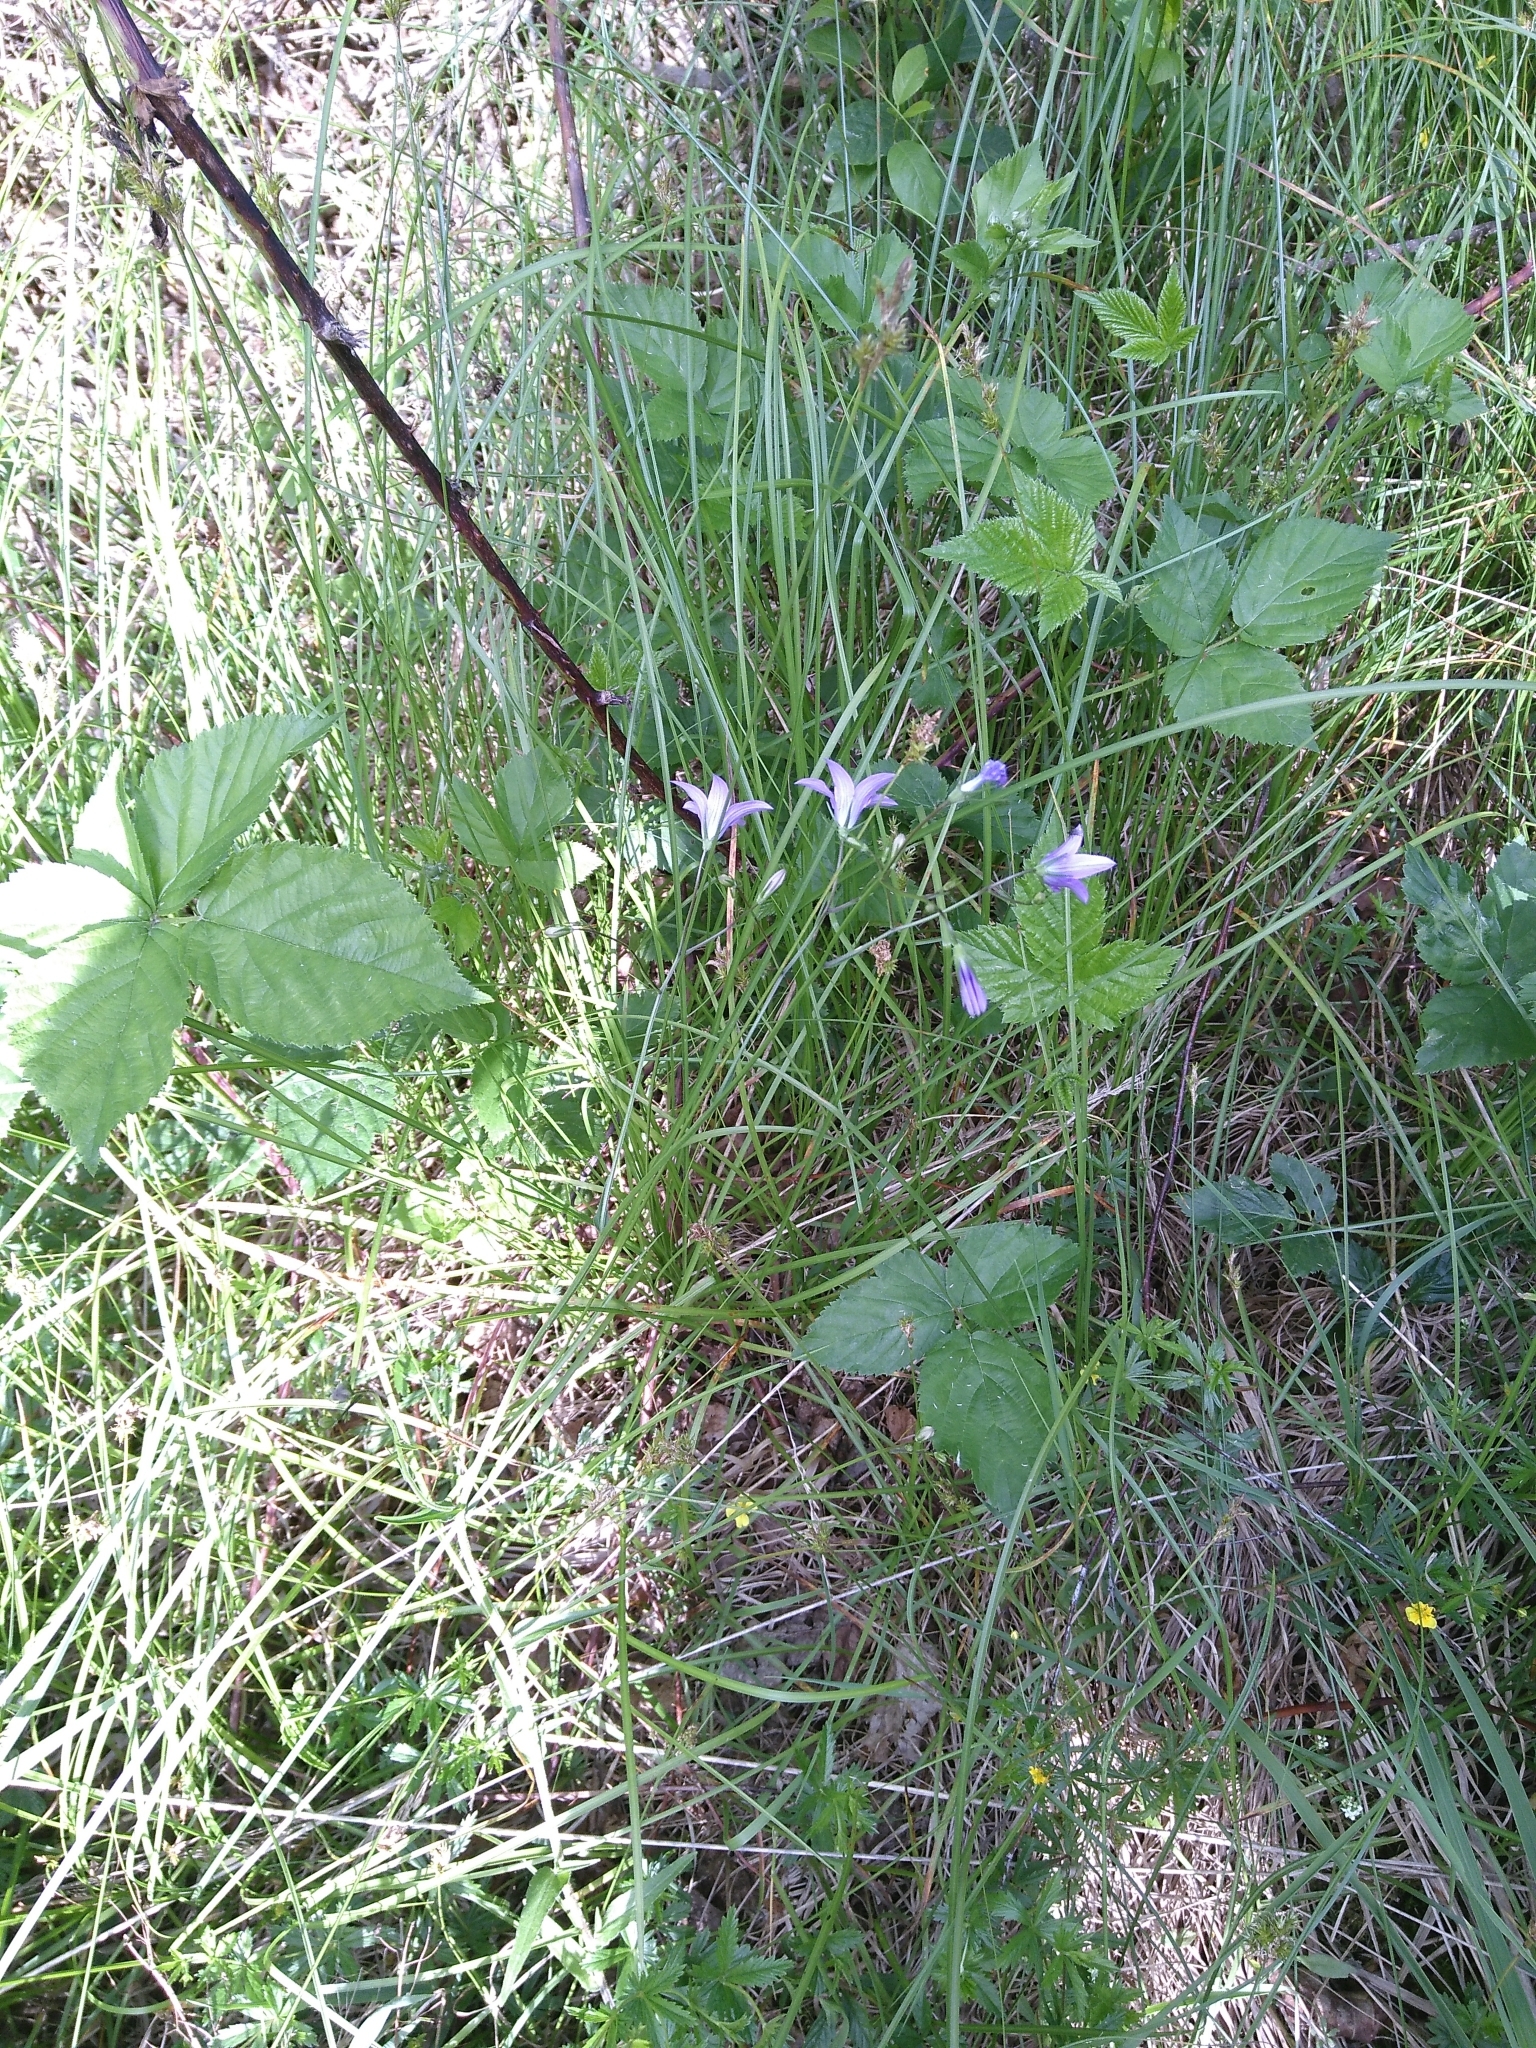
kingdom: Plantae
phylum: Tracheophyta
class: Magnoliopsida
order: Asterales
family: Campanulaceae
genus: Campanula
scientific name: Campanula patula
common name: Spreading bellflower
